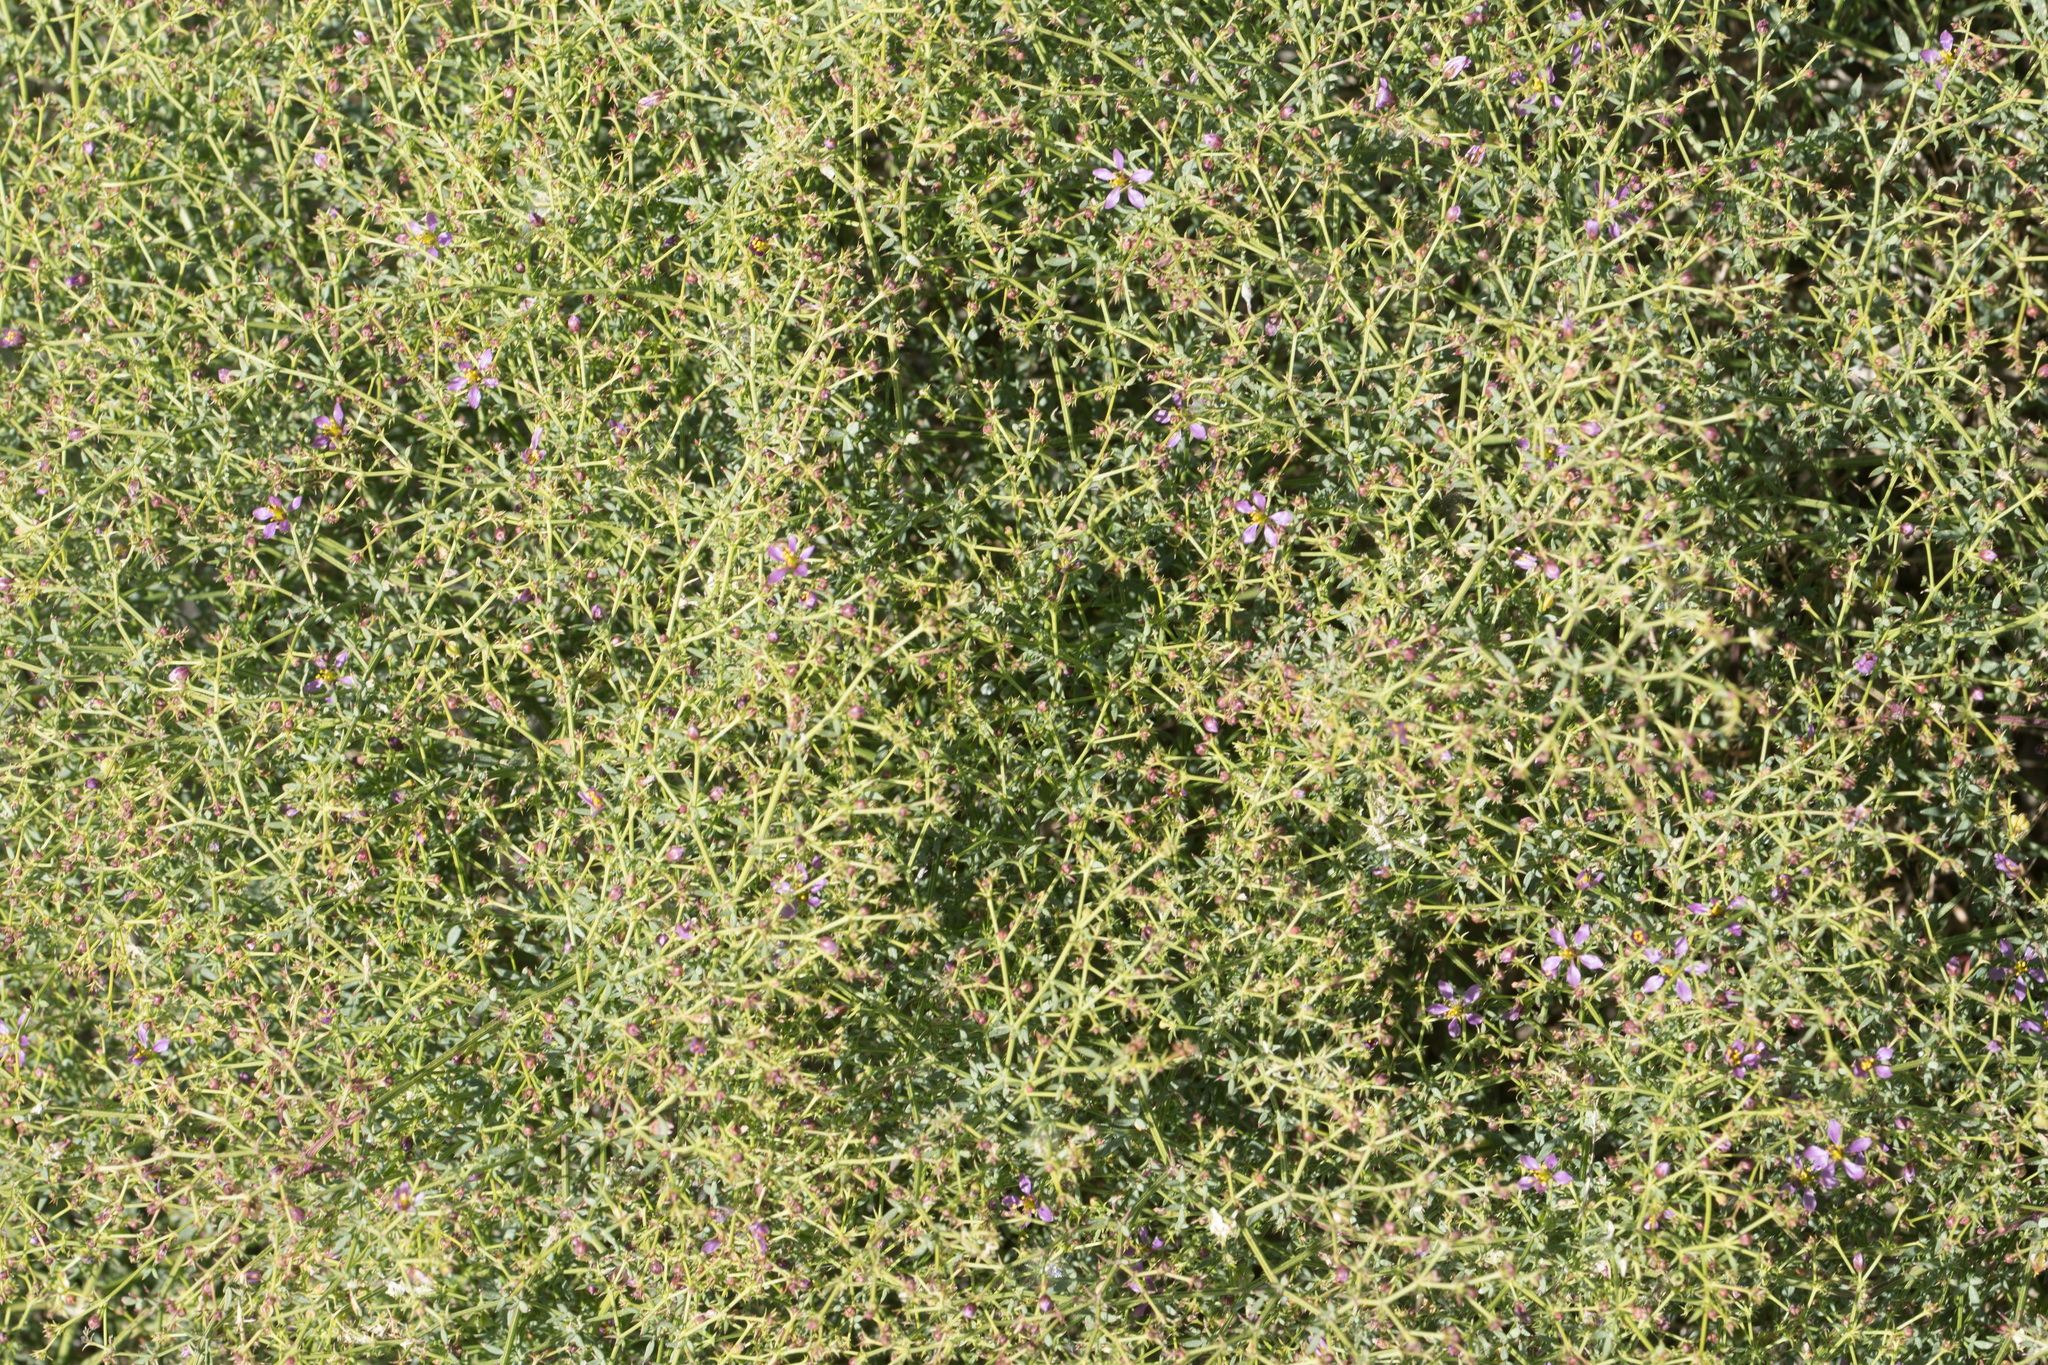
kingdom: Plantae
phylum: Tracheophyta
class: Magnoliopsida
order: Zygophyllales
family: Zygophyllaceae
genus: Fagonia
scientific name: Fagonia laevis
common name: California fagonbush
